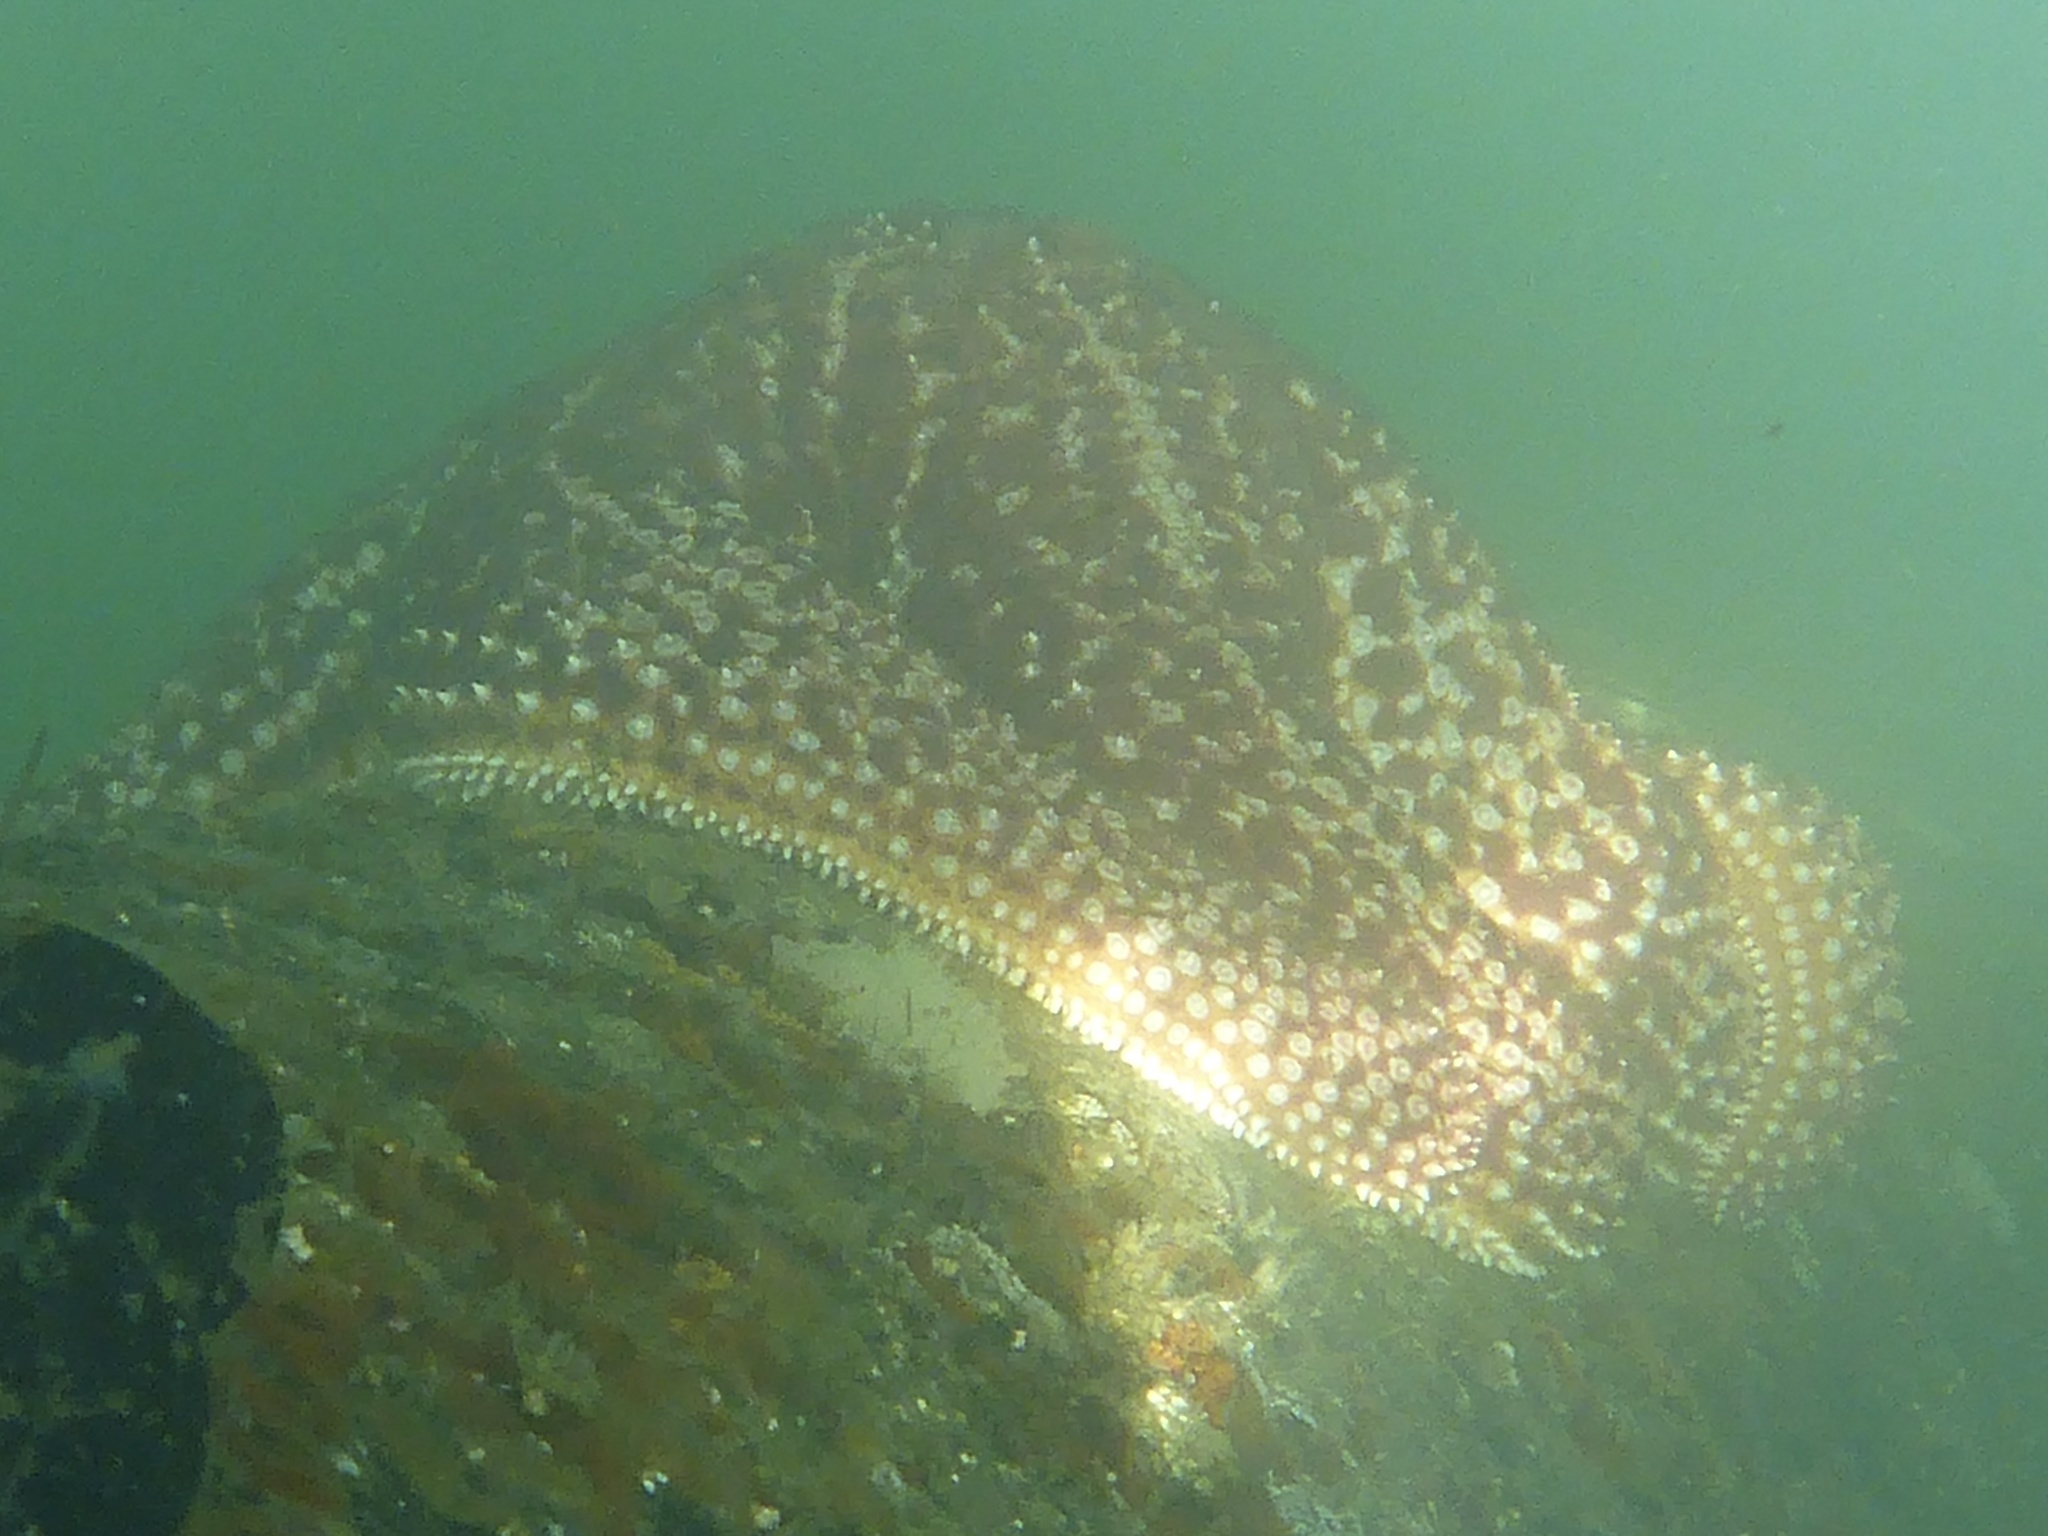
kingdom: Animalia
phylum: Echinodermata
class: Asteroidea
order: Forcipulatida
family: Asteriidae
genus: Pisaster
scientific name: Pisaster giganteus
